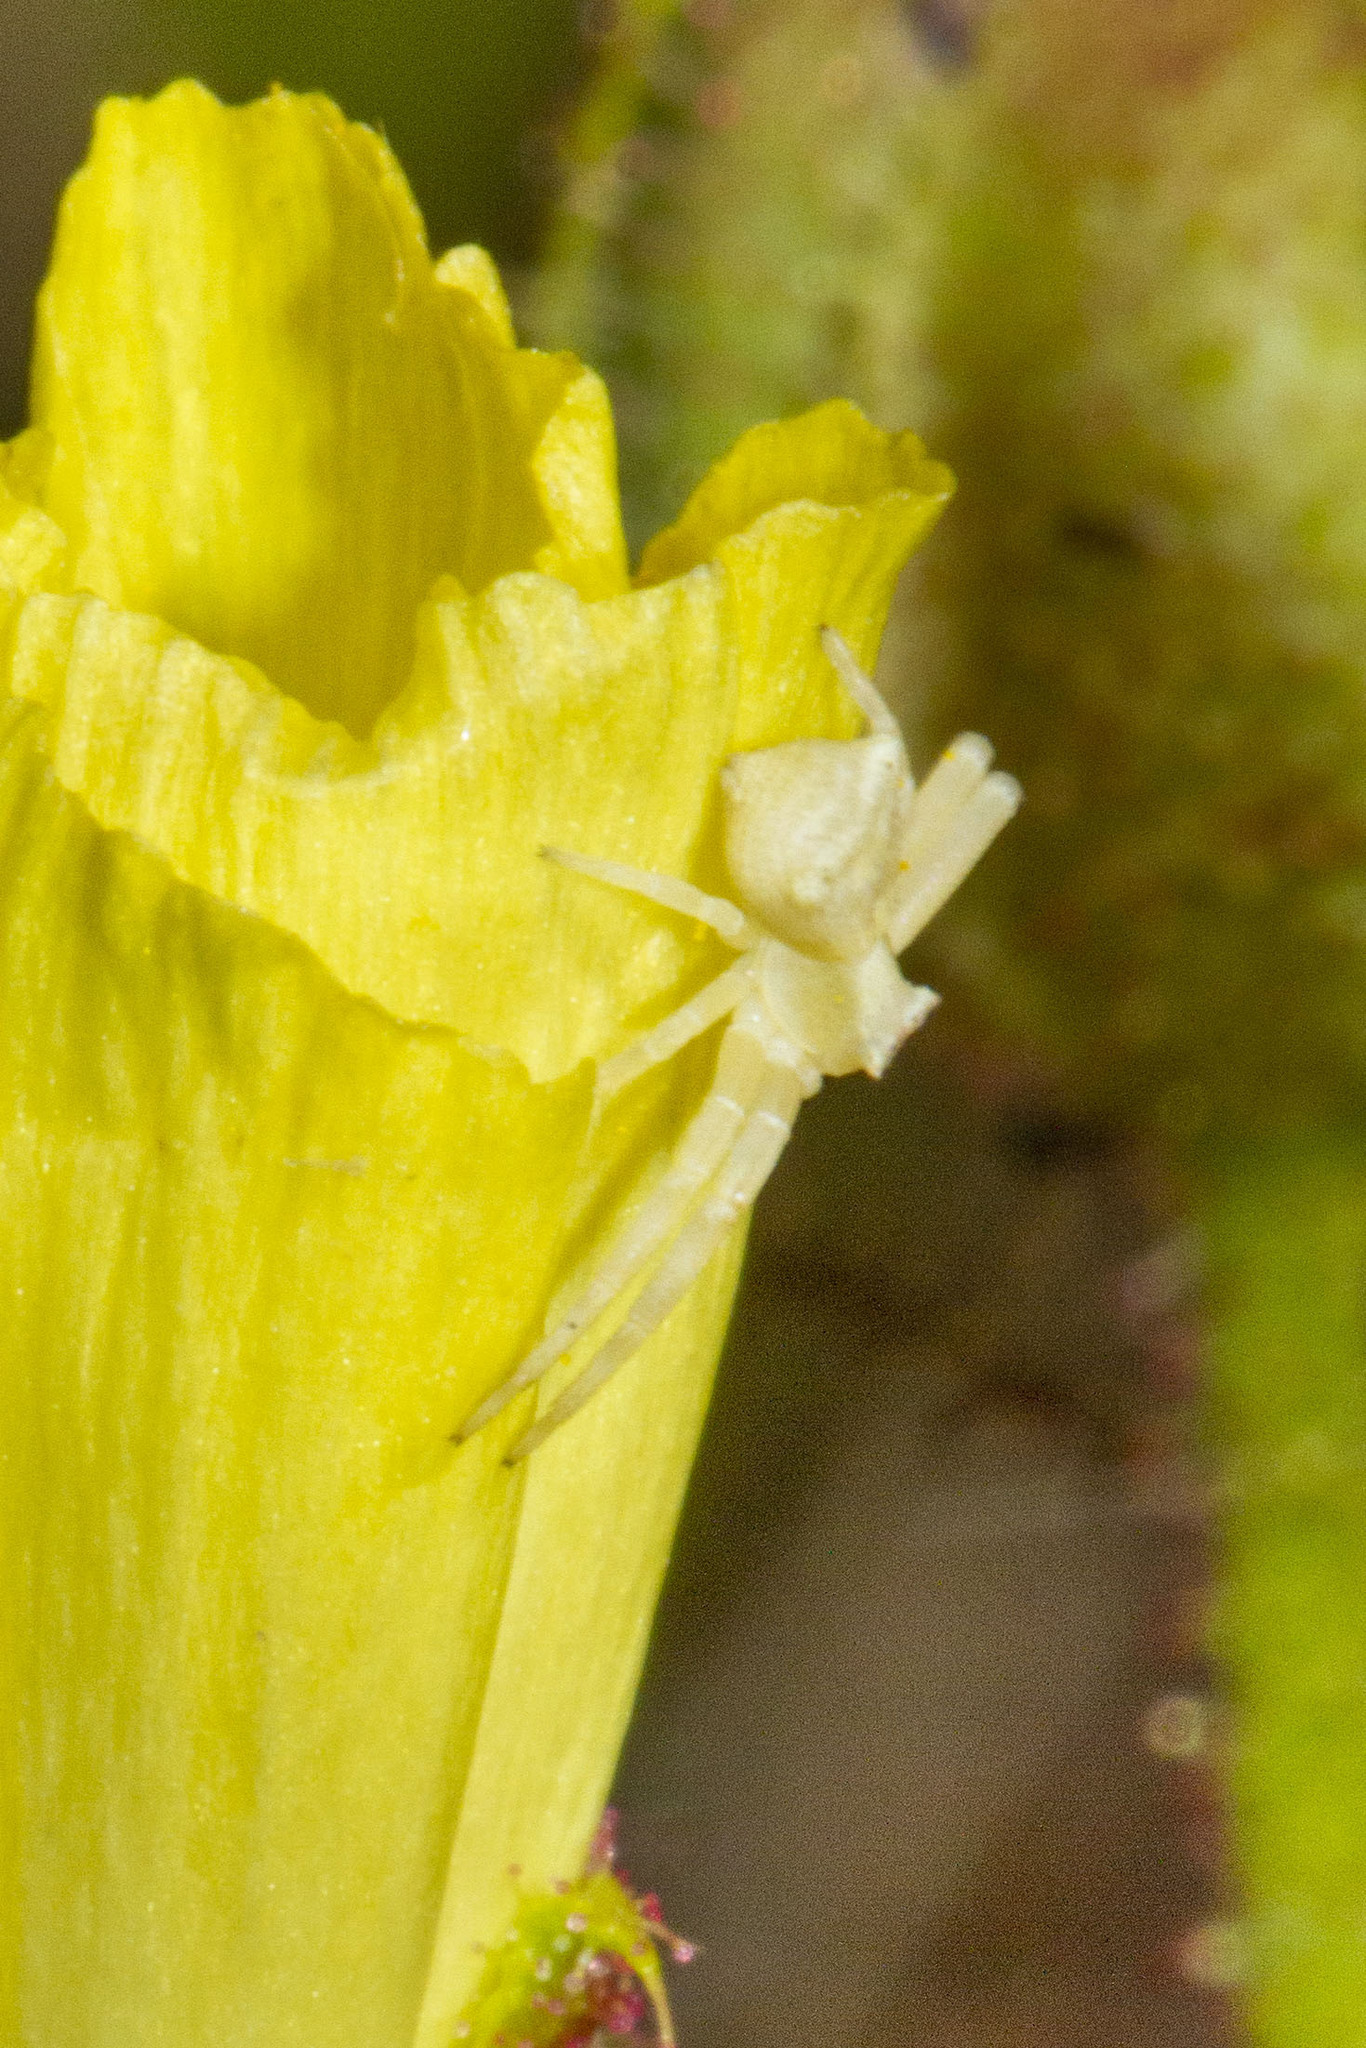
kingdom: Animalia
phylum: Arthropoda
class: Arachnida
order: Araneae
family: Thomisidae
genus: Thomisus
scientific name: Thomisus onustus
